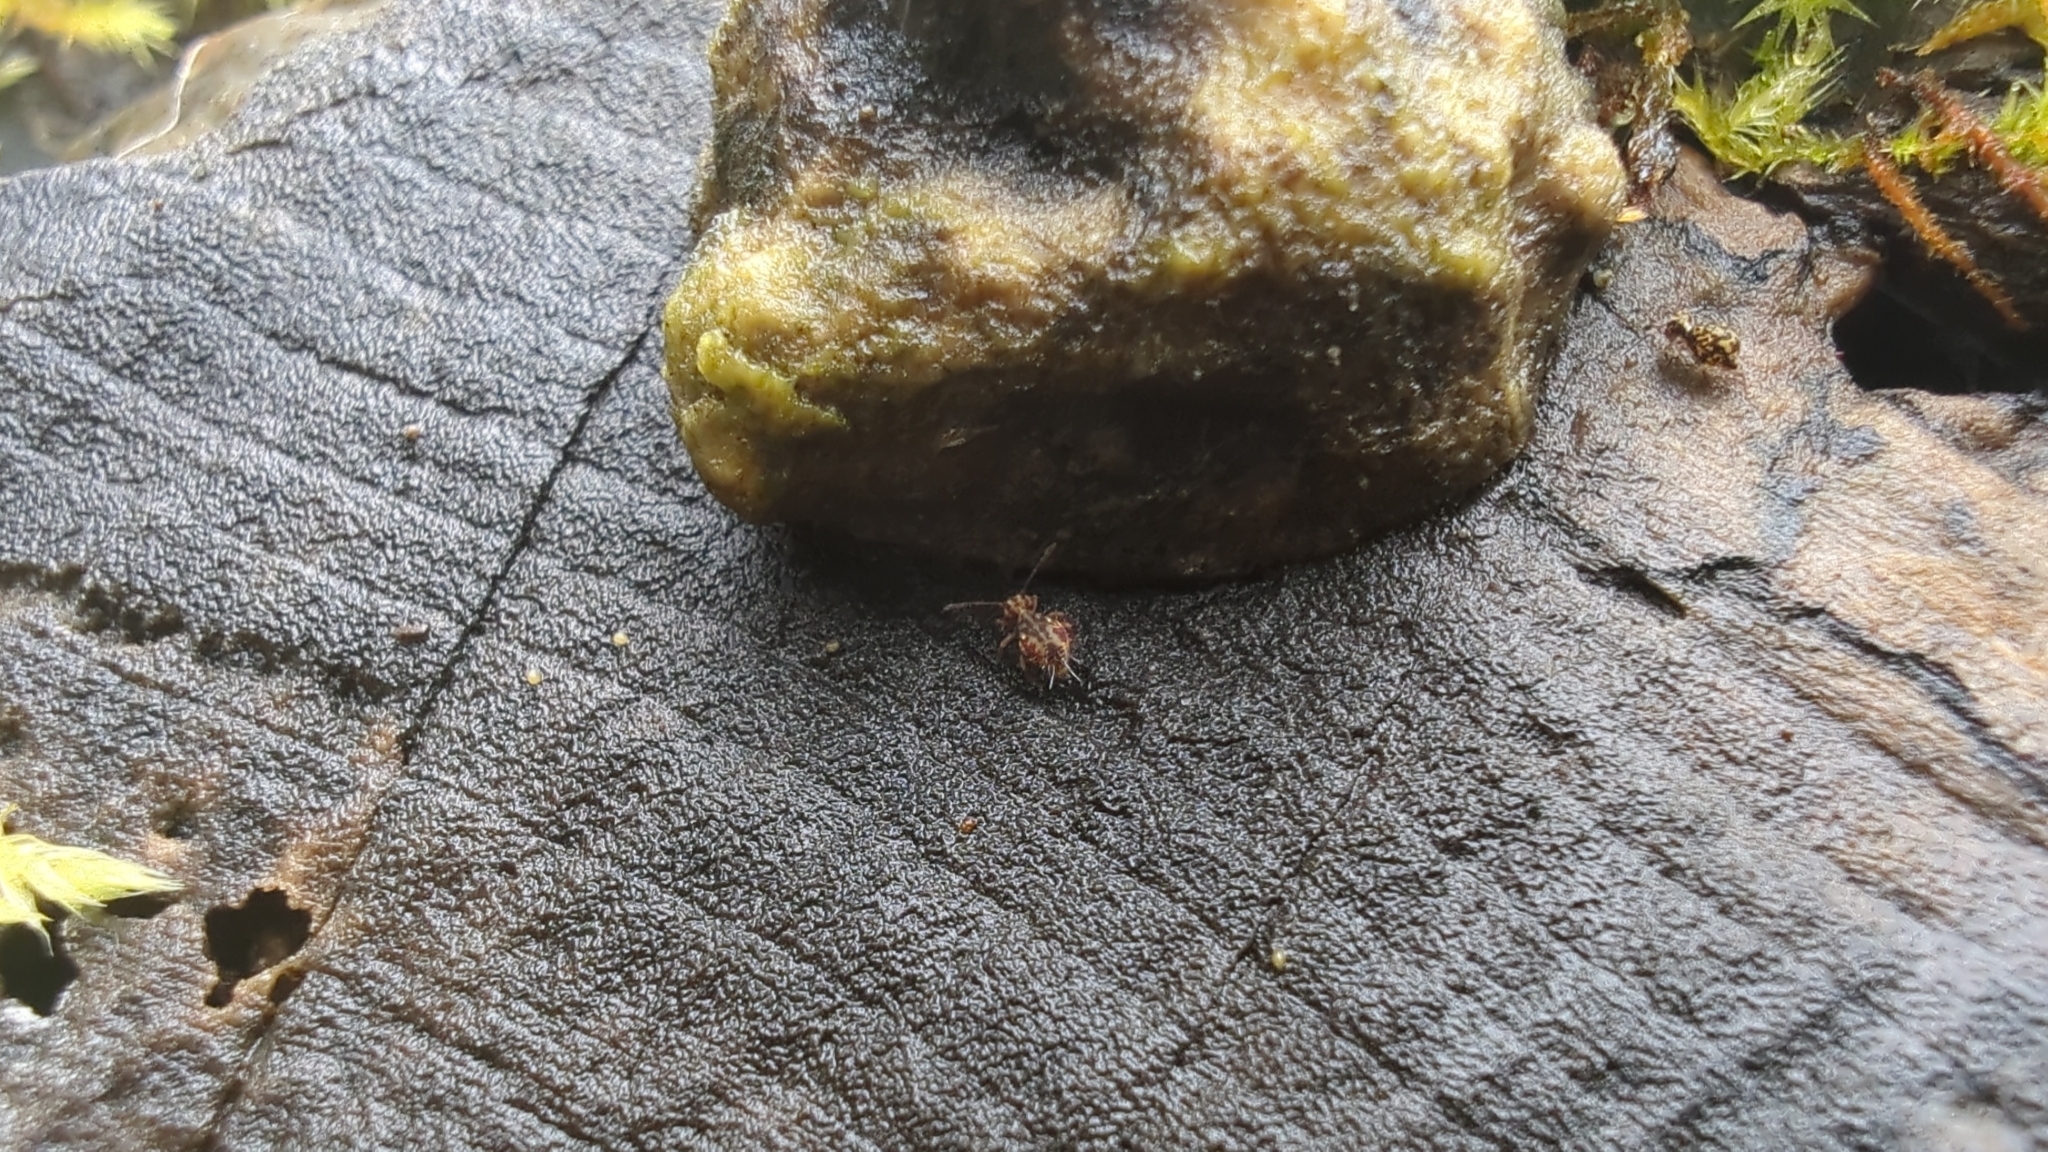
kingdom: Animalia
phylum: Arthropoda
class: Collembola
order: Symphypleona
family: Dicyrtomidae
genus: Dicyrtomina
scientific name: Dicyrtomina minuta
